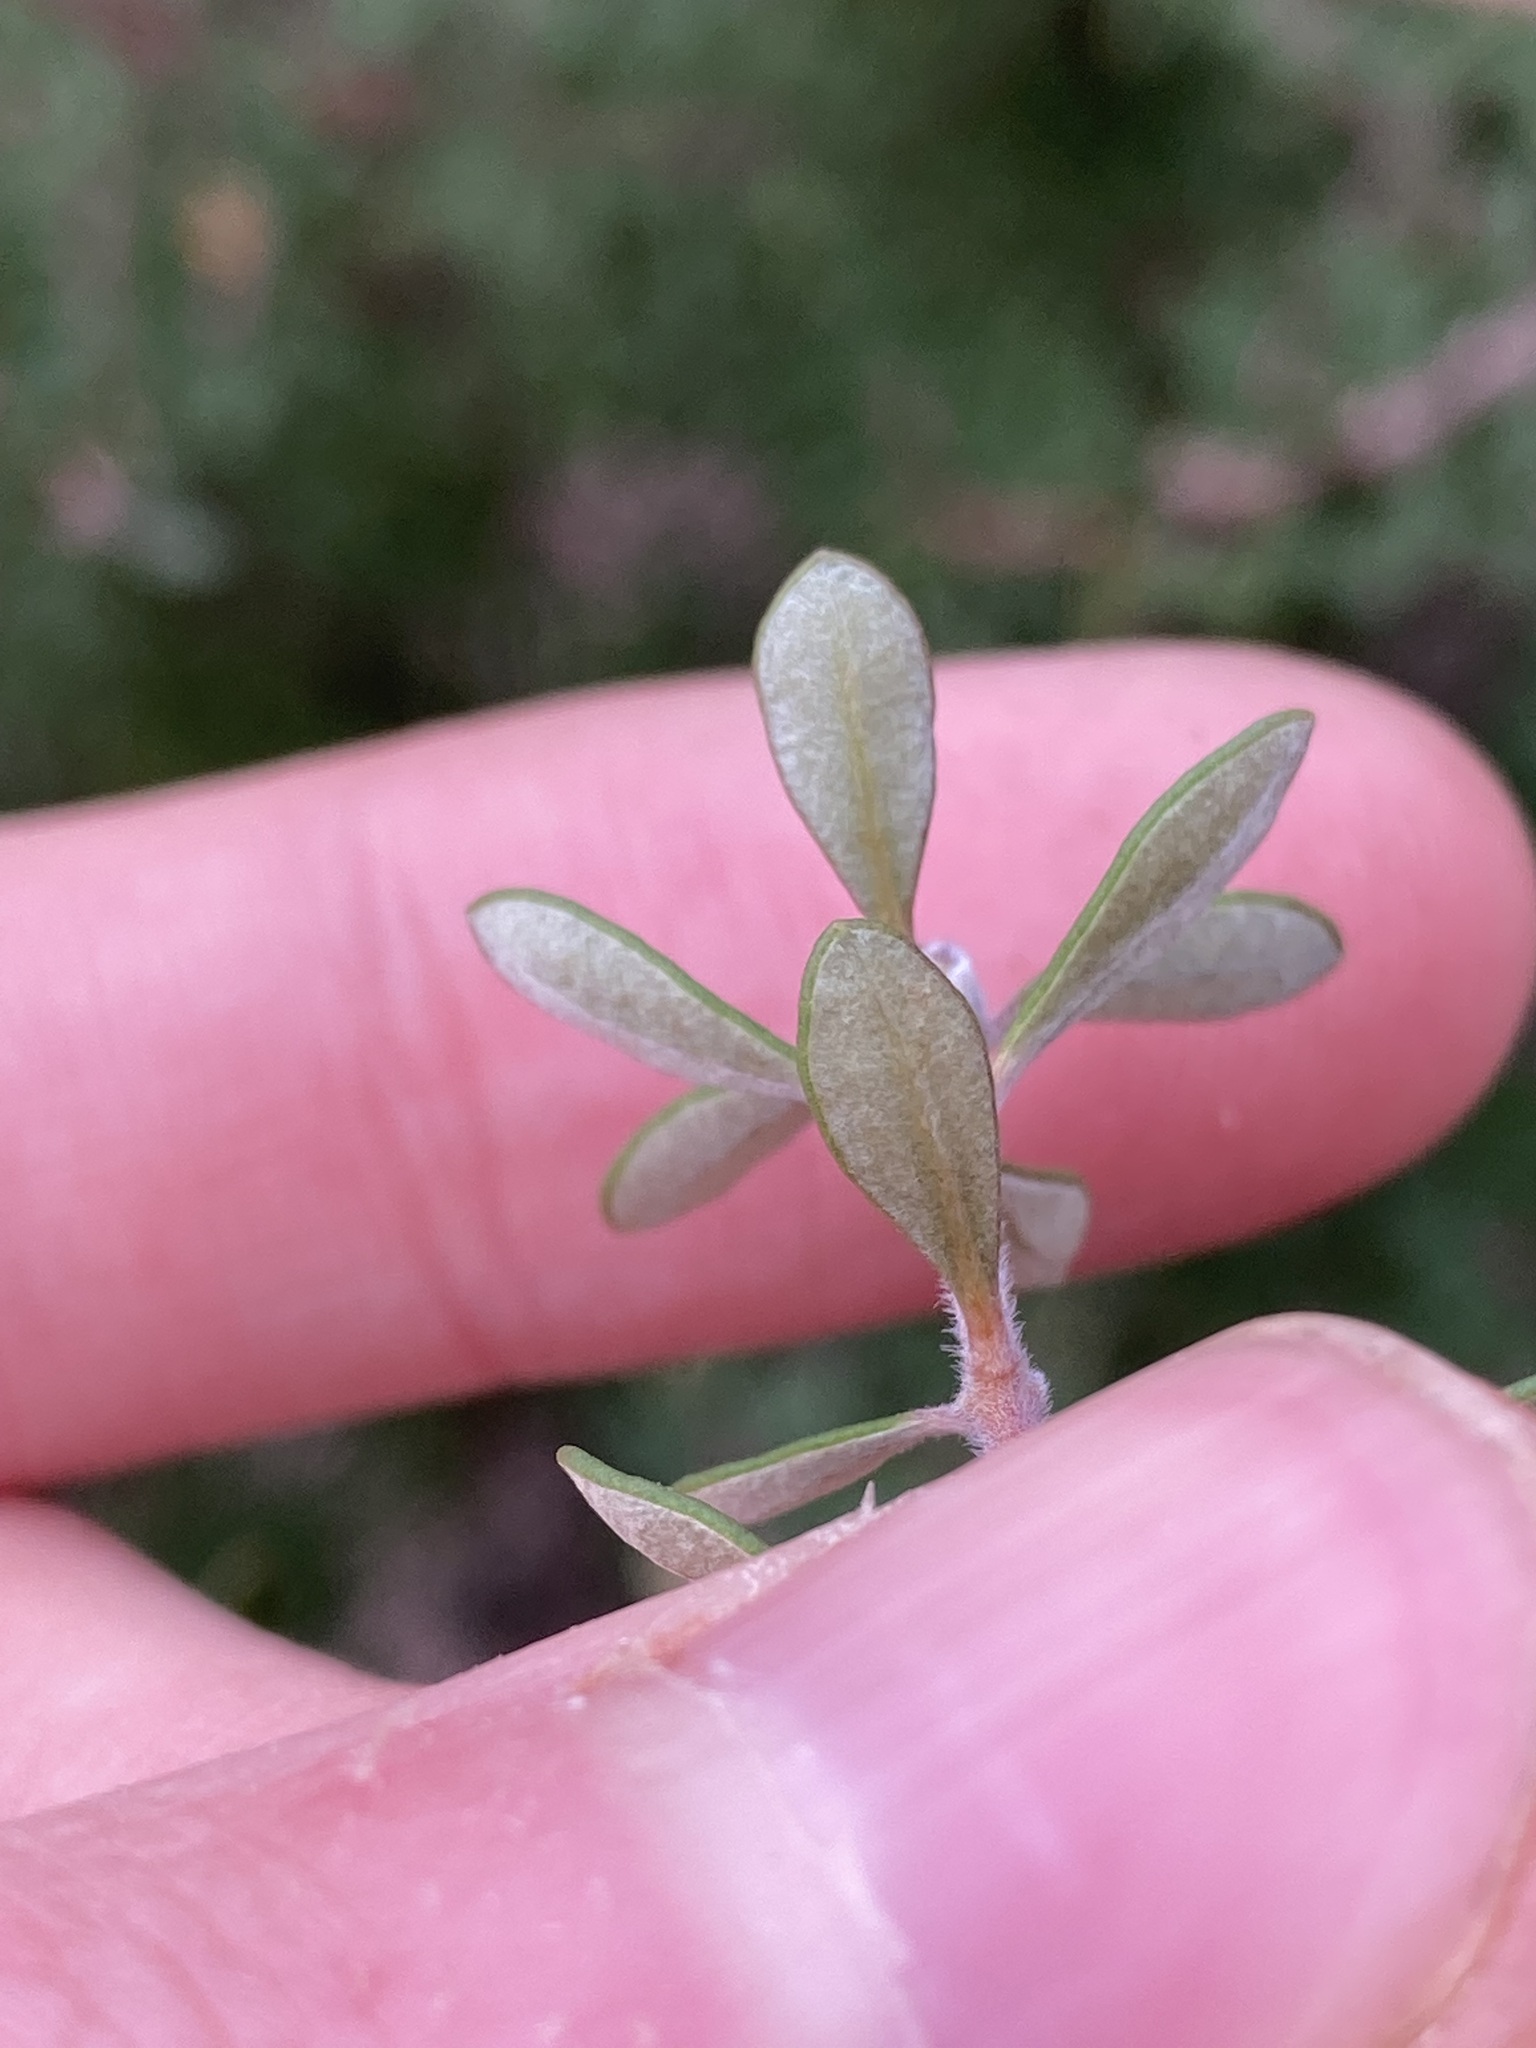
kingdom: Plantae
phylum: Tracheophyta
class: Magnoliopsida
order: Proteales
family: Proteaceae
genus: Lambertia
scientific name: Lambertia inermis
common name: Chittick
